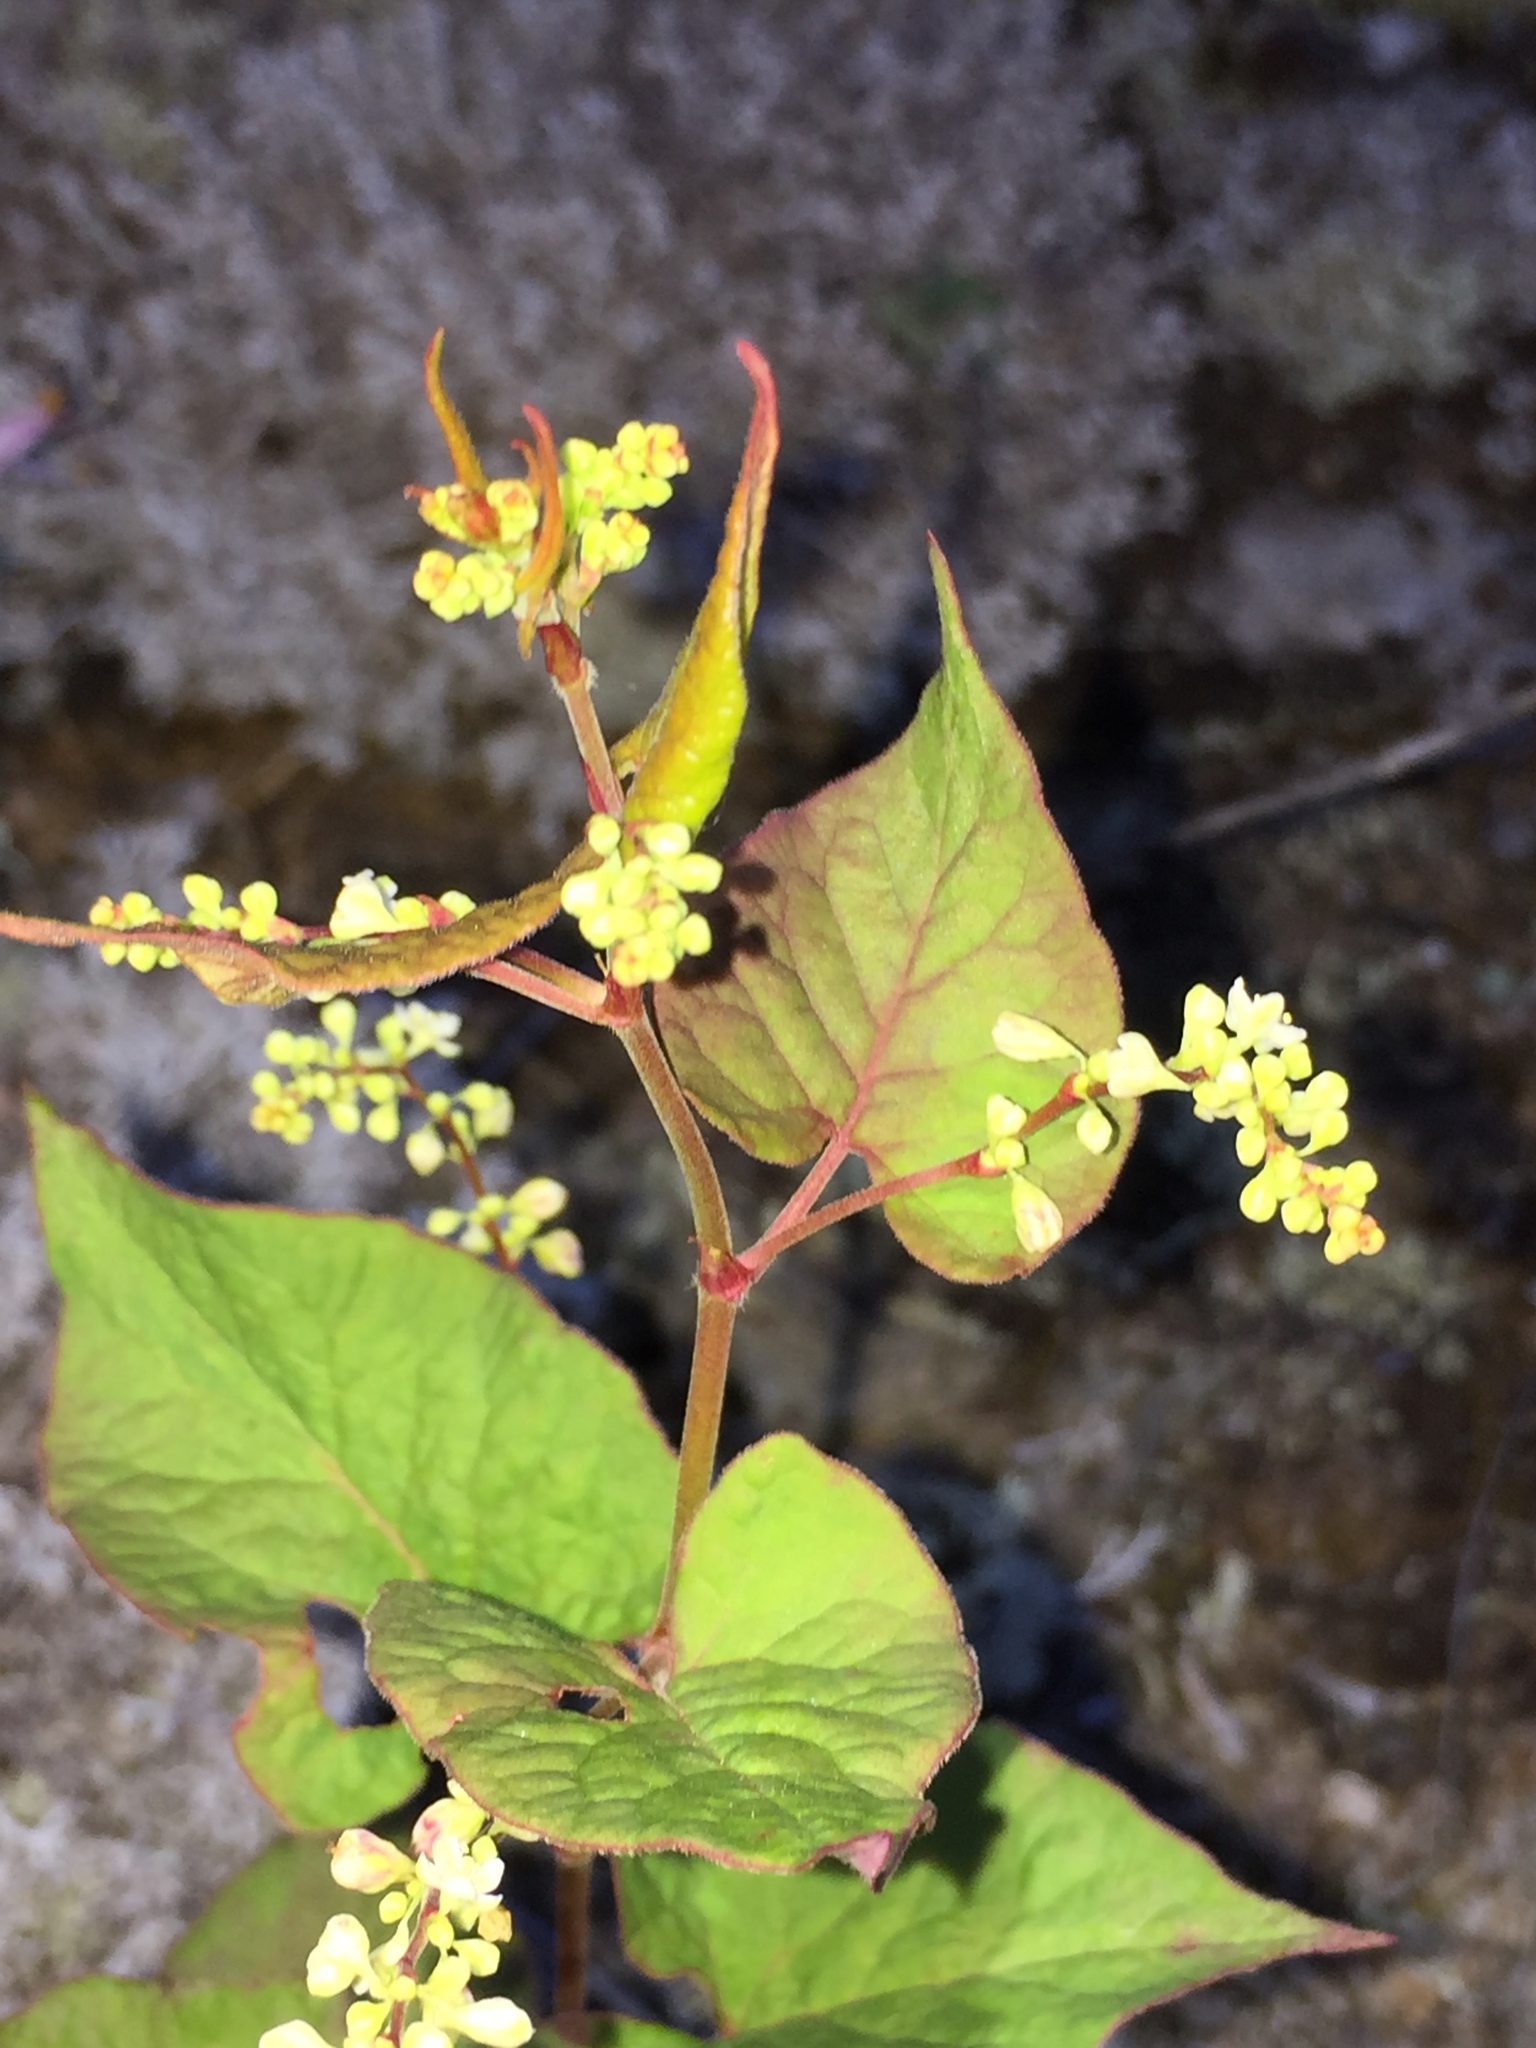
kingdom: Plantae
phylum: Tracheophyta
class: Magnoliopsida
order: Caryophyllales
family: Polygonaceae
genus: Parogonum
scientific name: Parogonum ciliinode
